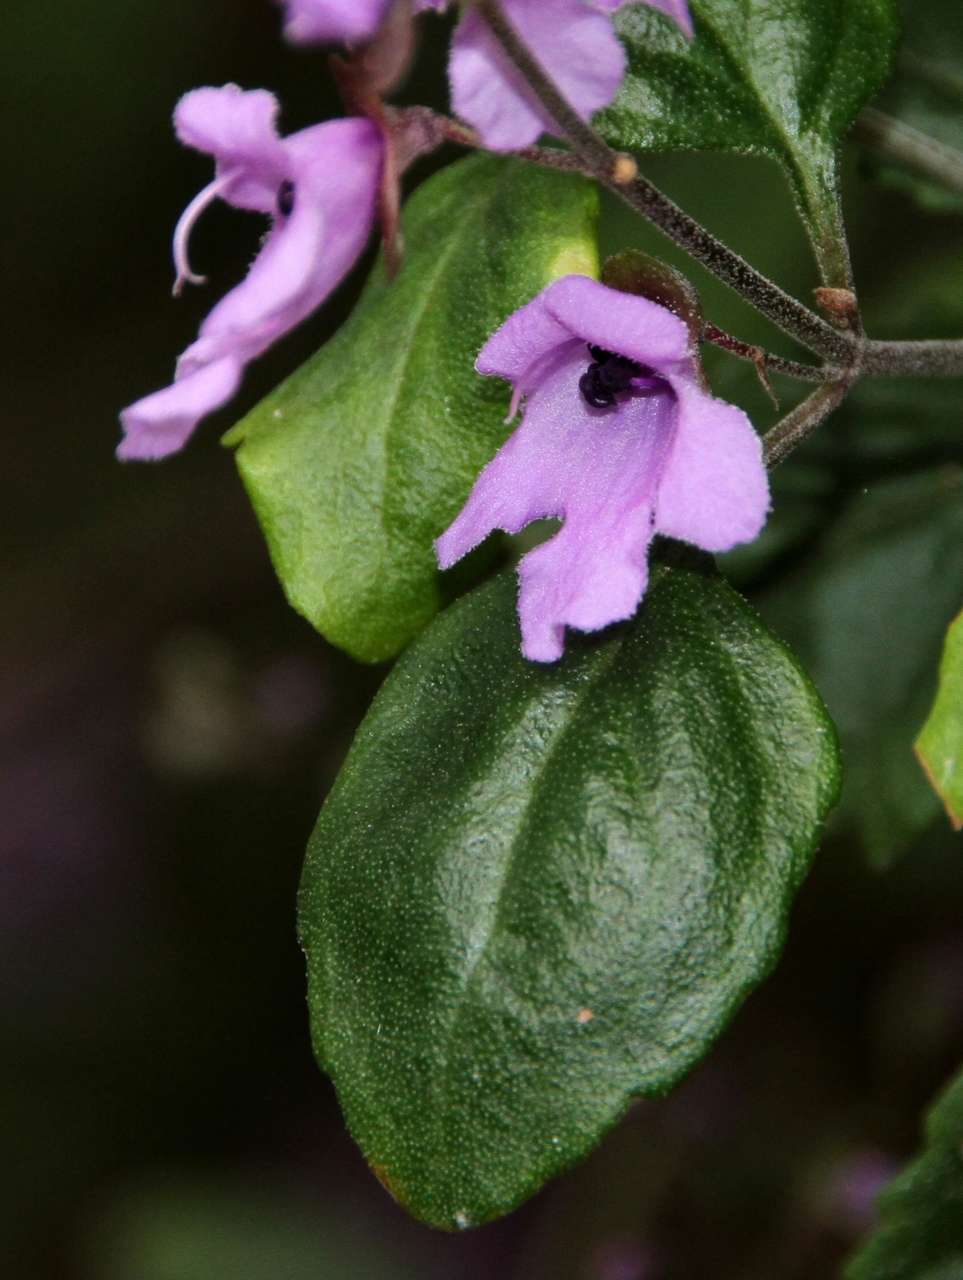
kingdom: Plantae
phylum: Tracheophyta
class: Magnoliopsida
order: Lamiales
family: Lamiaceae
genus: Prostanthera
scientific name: Prostanthera melissifolia
